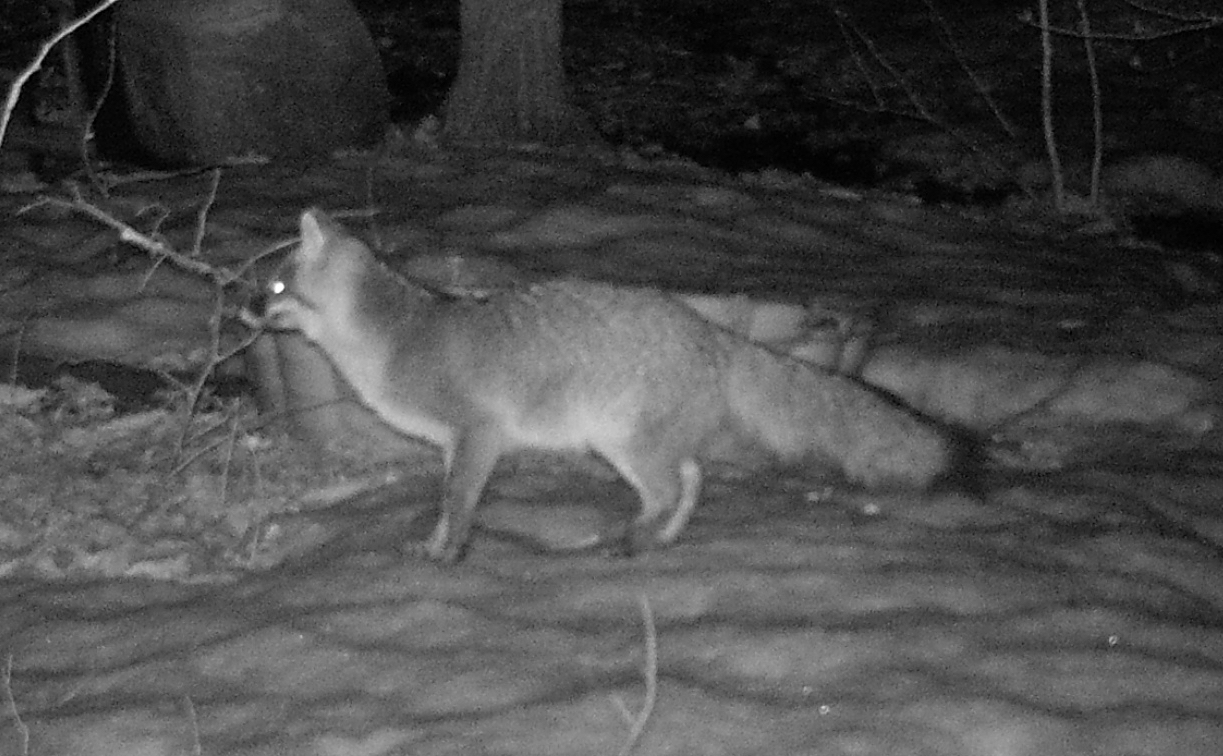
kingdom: Animalia
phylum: Chordata
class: Mammalia
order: Carnivora
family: Canidae
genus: Urocyon
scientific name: Urocyon cinereoargenteus
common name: Gray fox
